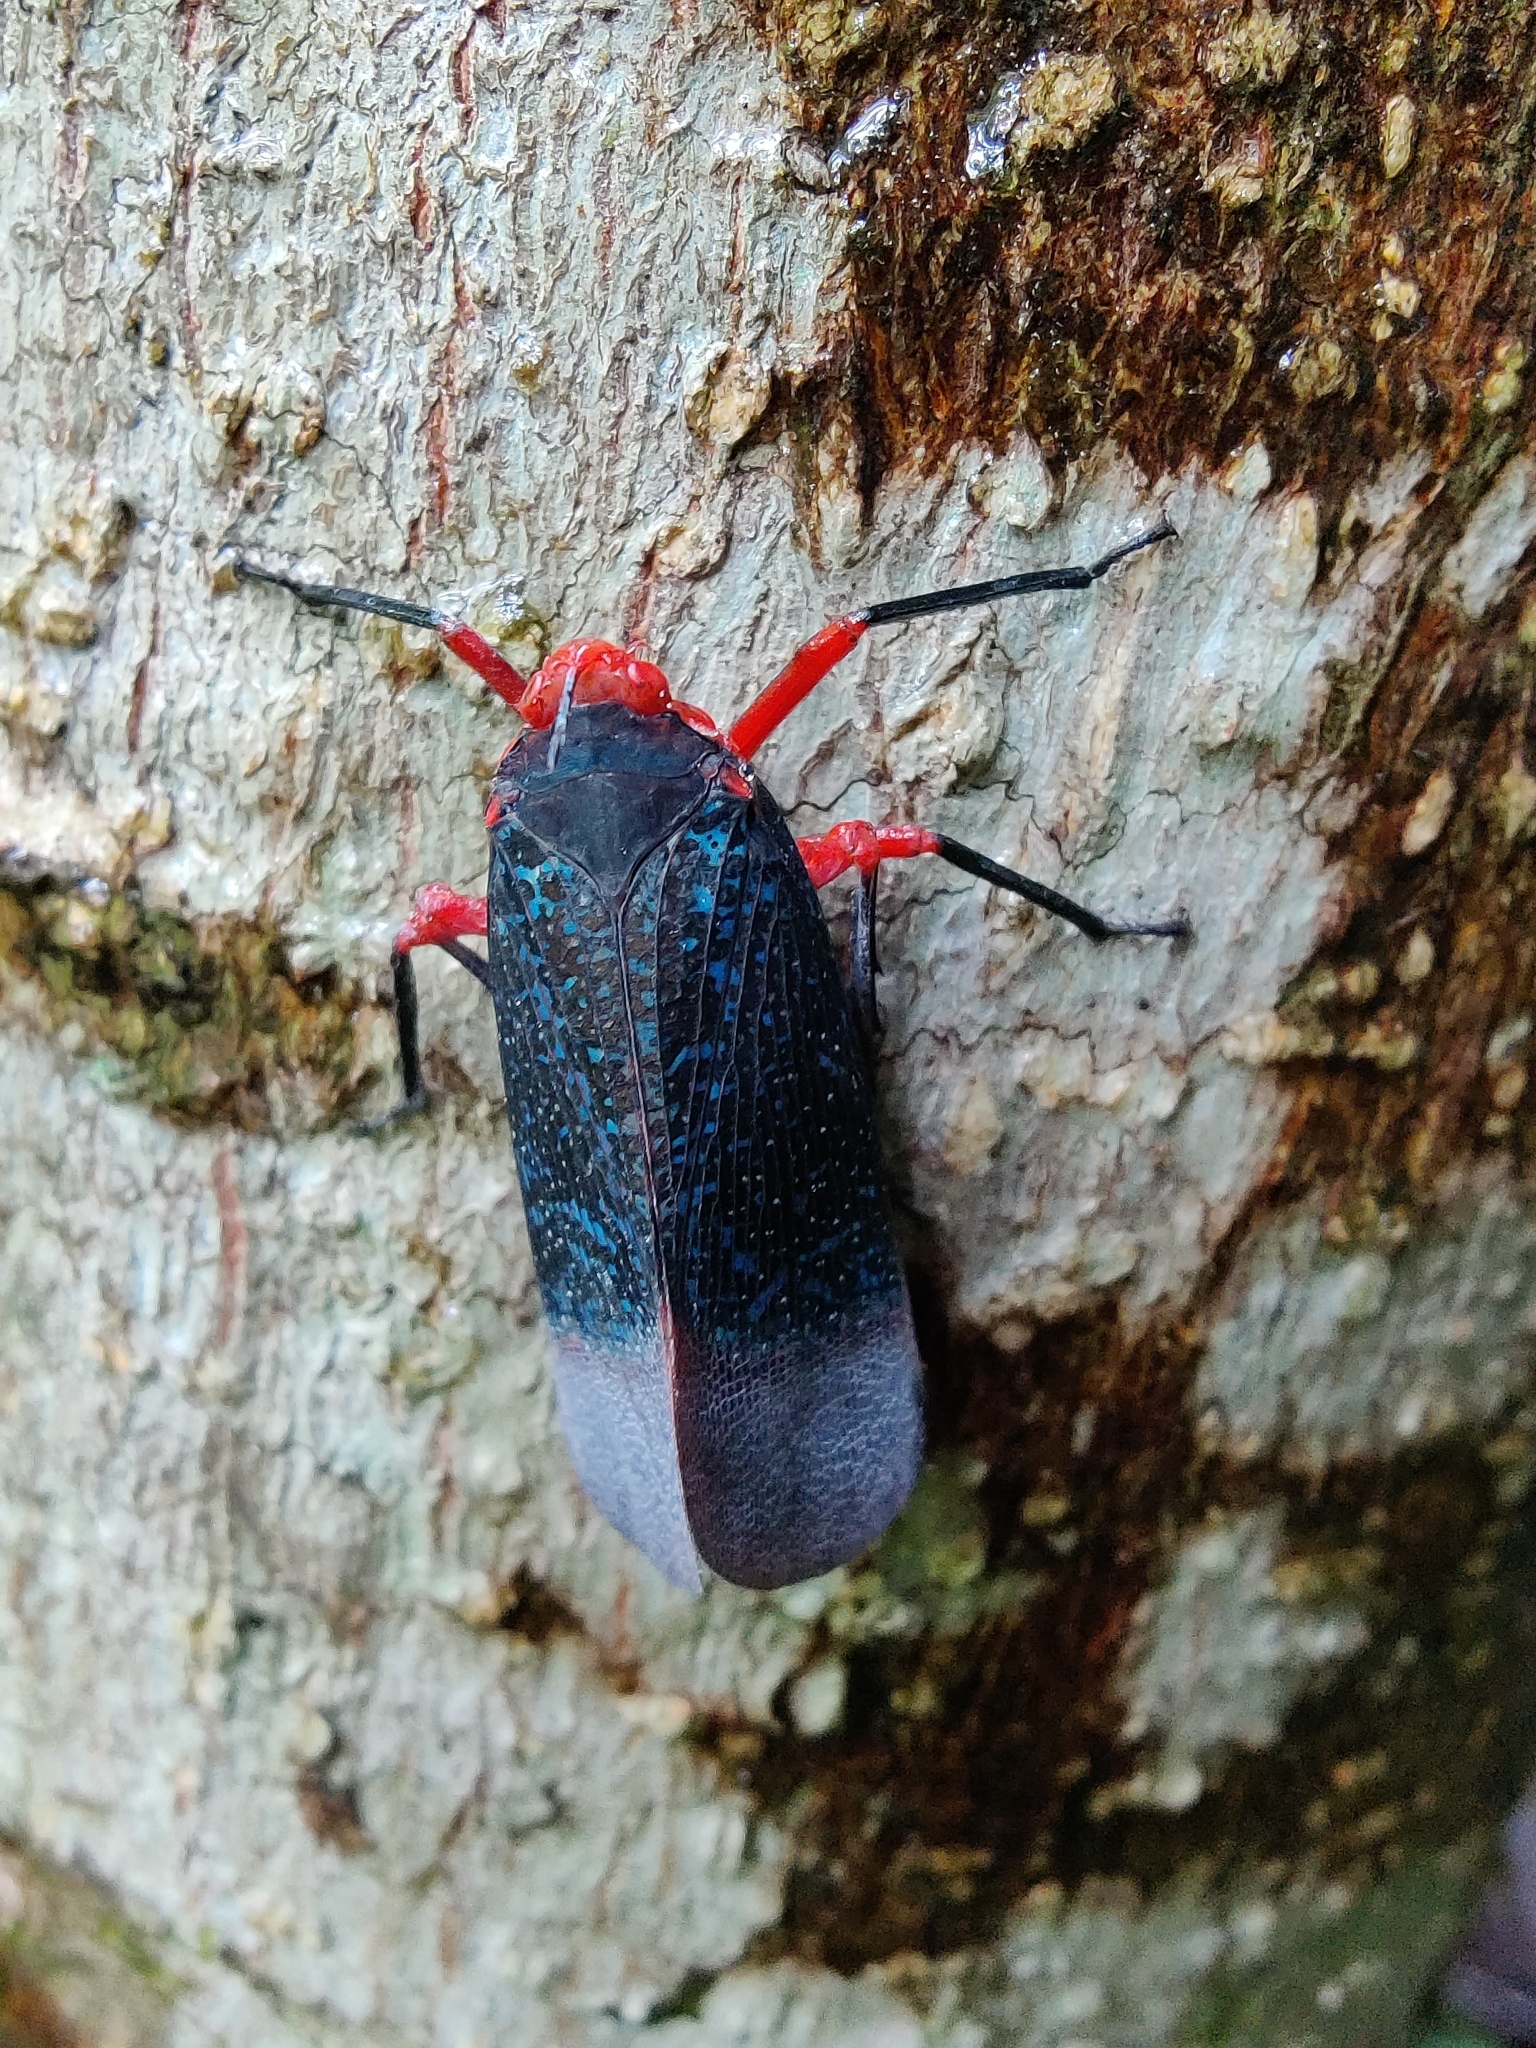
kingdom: Animalia
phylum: Arthropoda
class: Insecta
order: Hemiptera
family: Fulgoridae
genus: Kalidasa
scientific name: Kalidasa lanata
